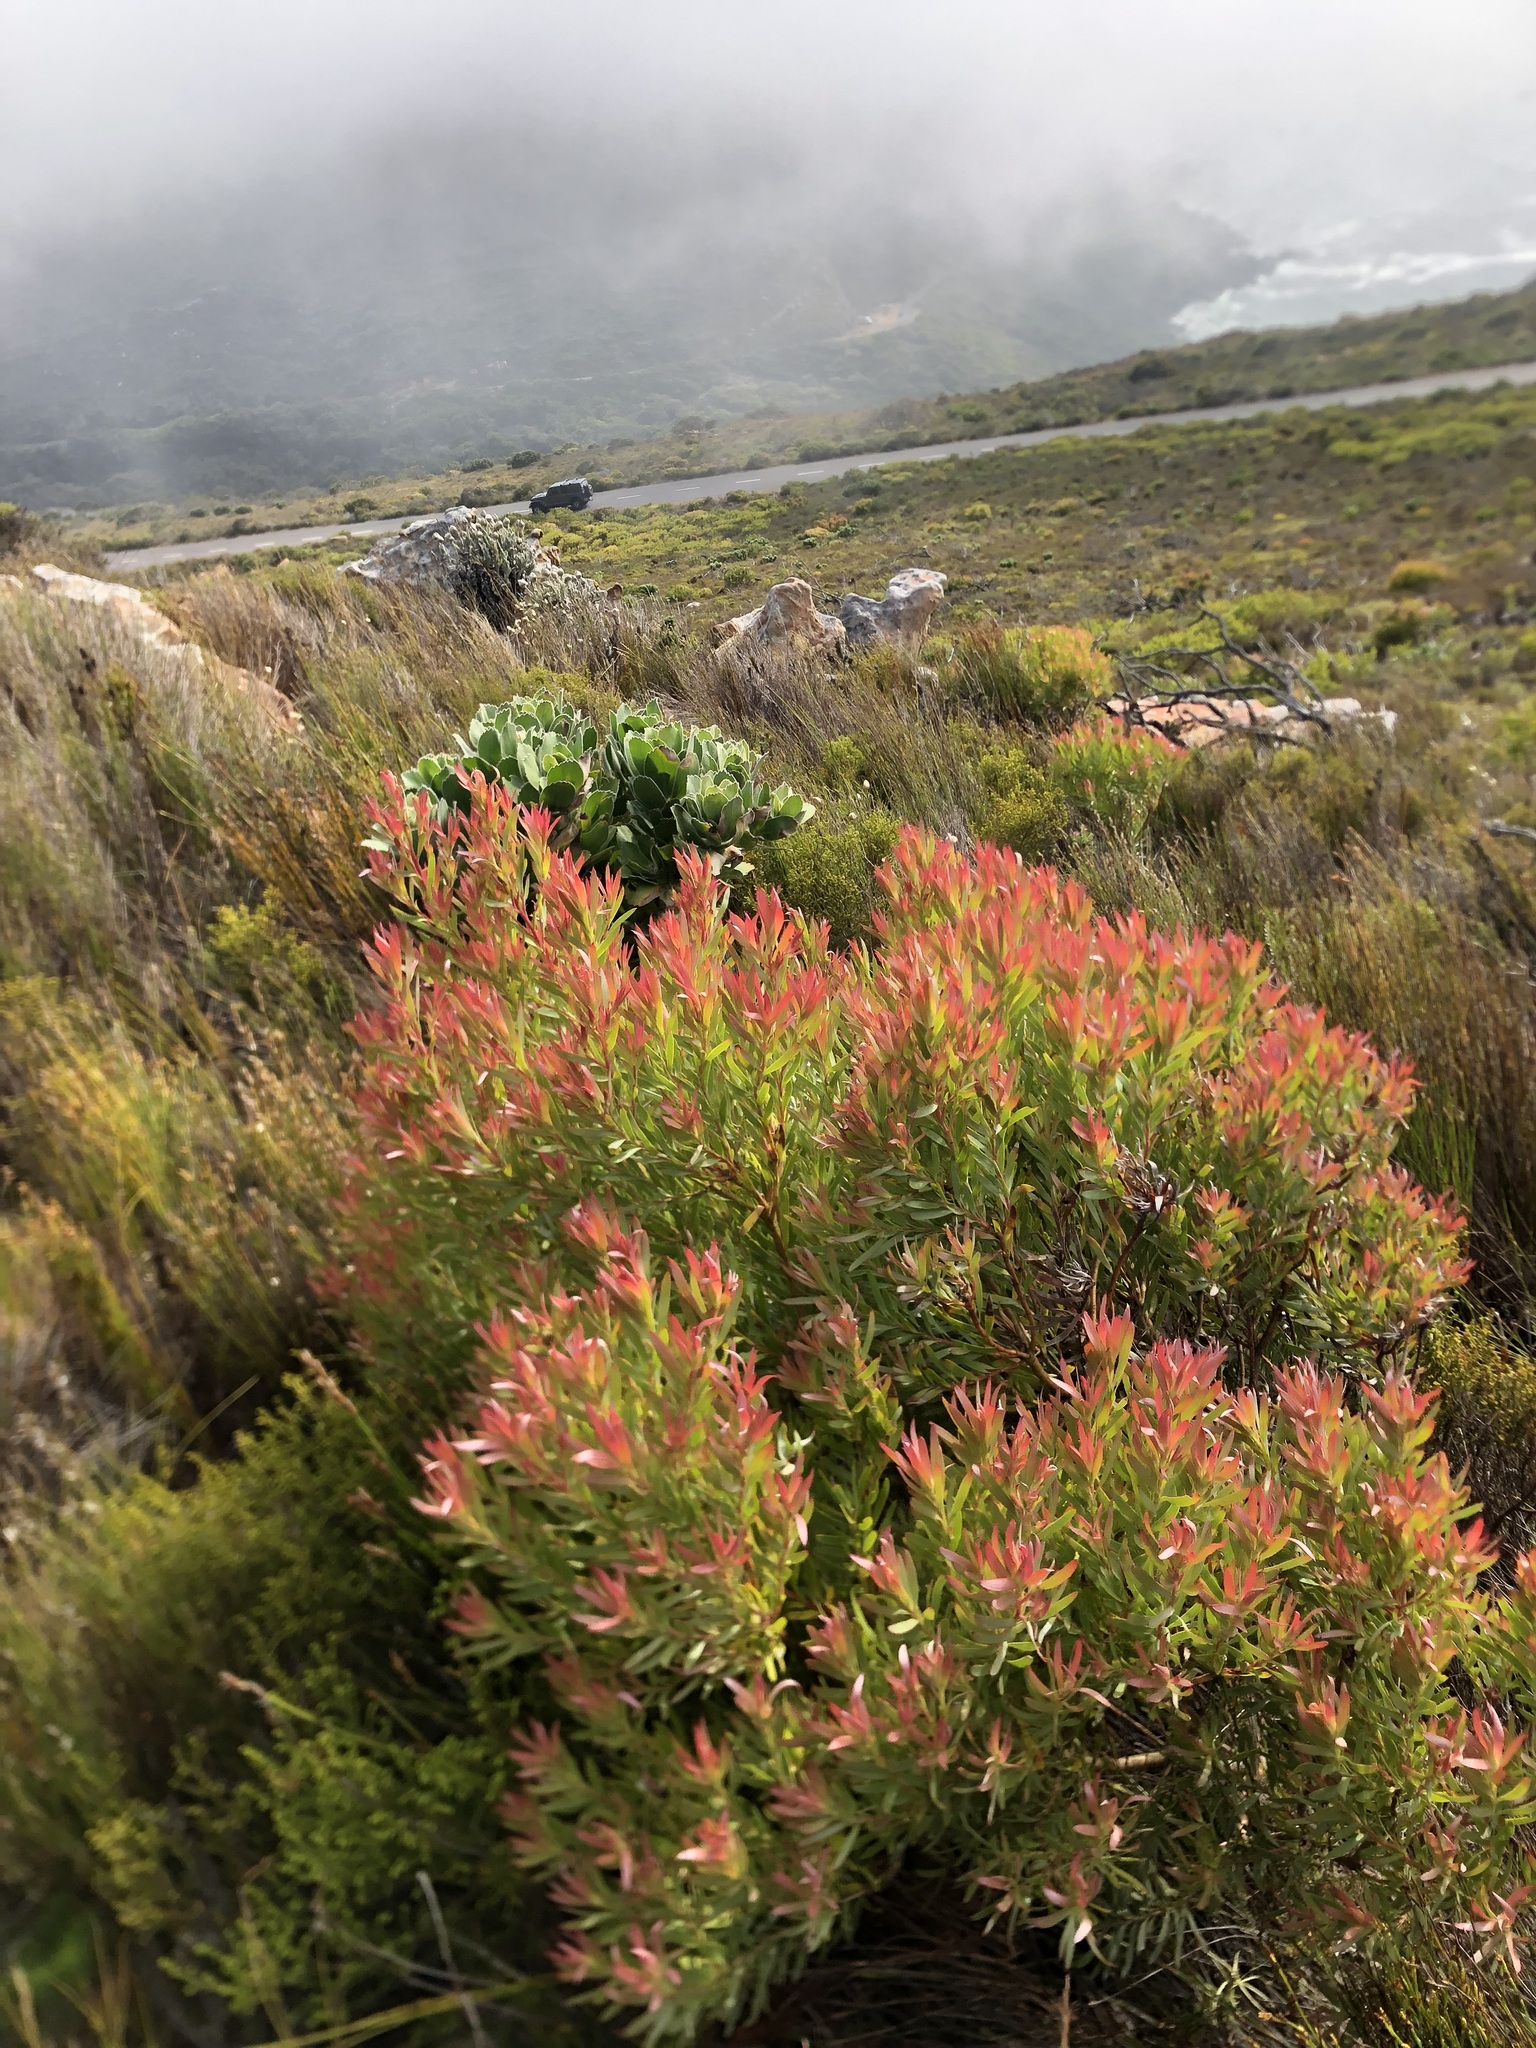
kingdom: Plantae
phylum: Tracheophyta
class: Magnoliopsida
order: Proteales
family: Proteaceae
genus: Leucadendron
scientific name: Leucadendron xanthoconus
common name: Sickle-leaf conebush
